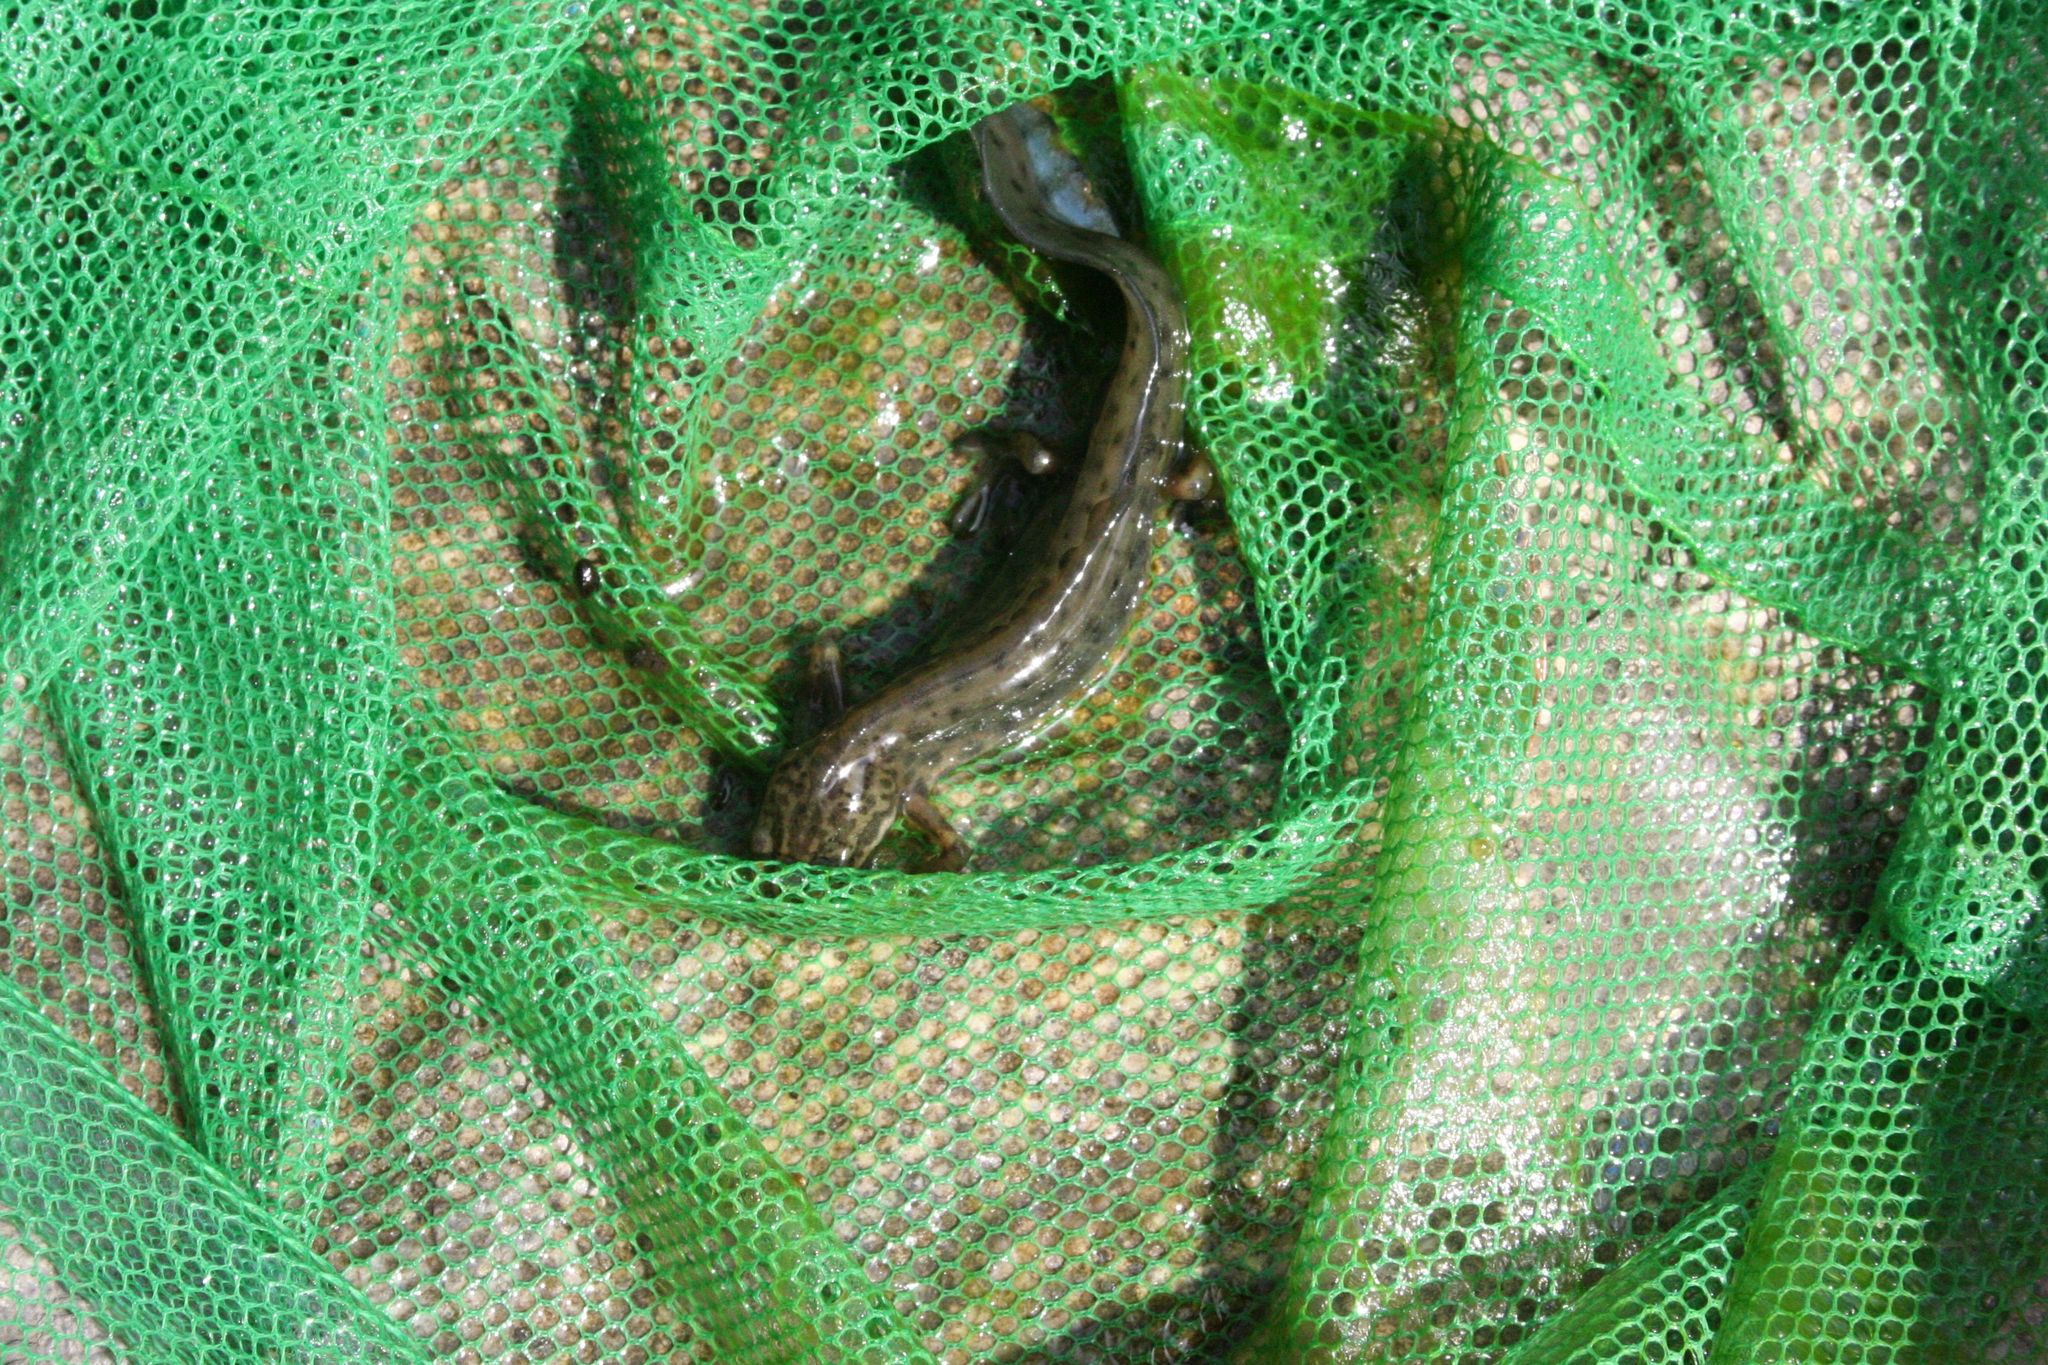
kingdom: Animalia
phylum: Chordata
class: Amphibia
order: Caudata
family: Salamandridae
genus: Lissotriton
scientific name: Lissotriton vulgaris
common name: Smooth newt
